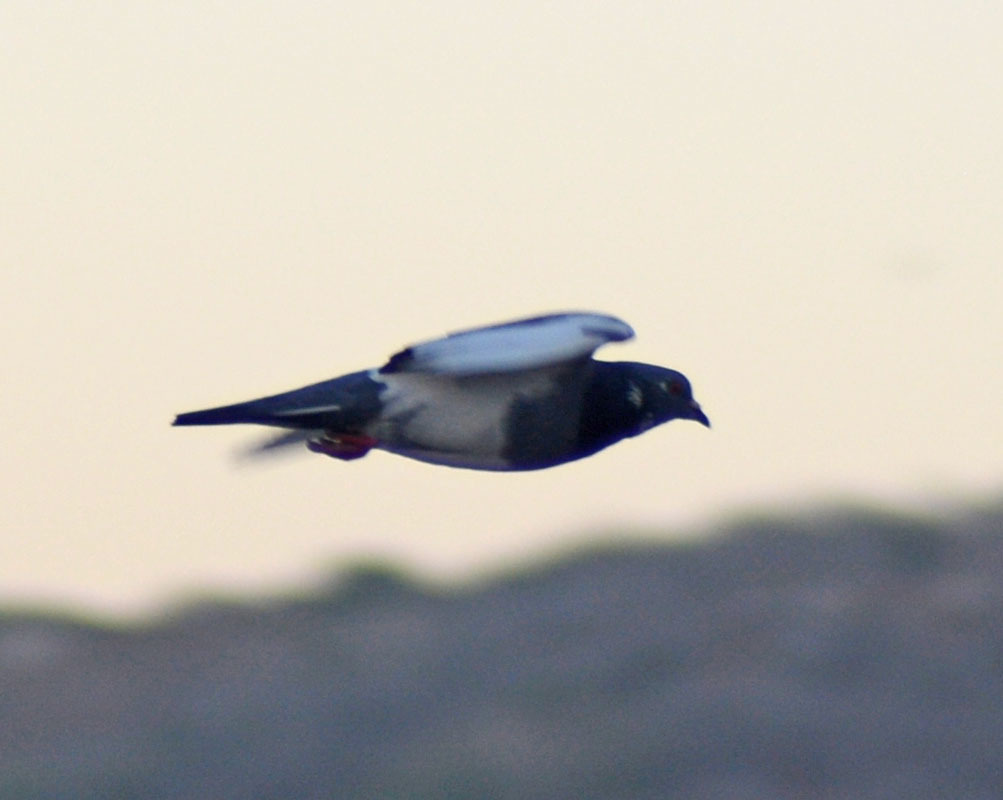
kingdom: Animalia
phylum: Chordata
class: Aves
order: Columbiformes
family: Columbidae
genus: Columba
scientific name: Columba livia
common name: Rock pigeon
